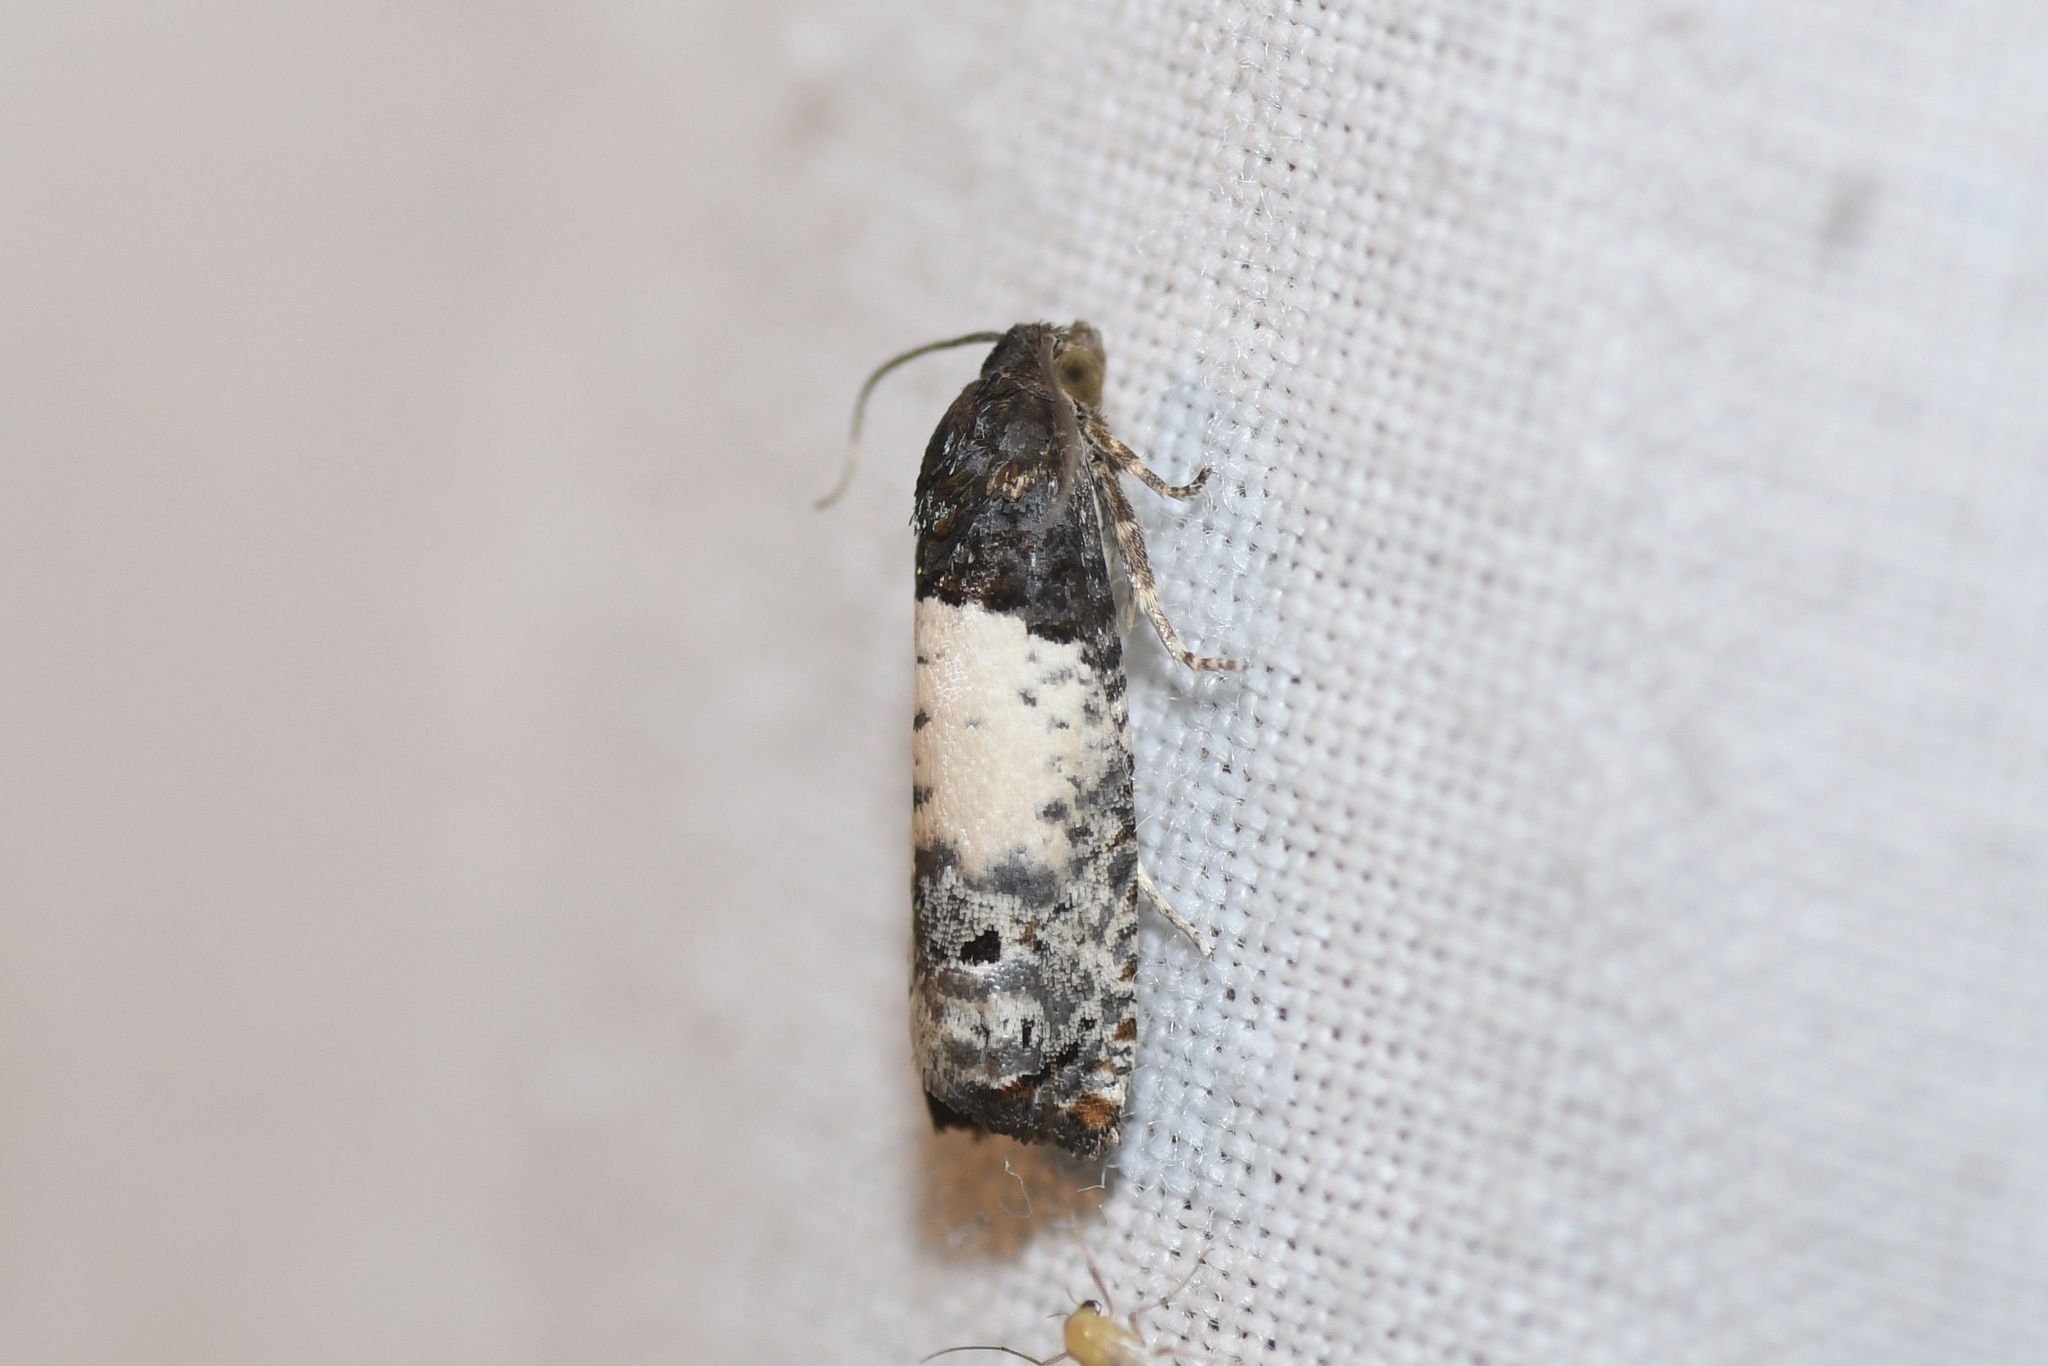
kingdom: Animalia
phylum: Arthropoda
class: Insecta
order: Lepidoptera
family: Tortricidae
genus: Epiblema
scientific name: Epiblema scudderiana
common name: Goldenrod gall moth
